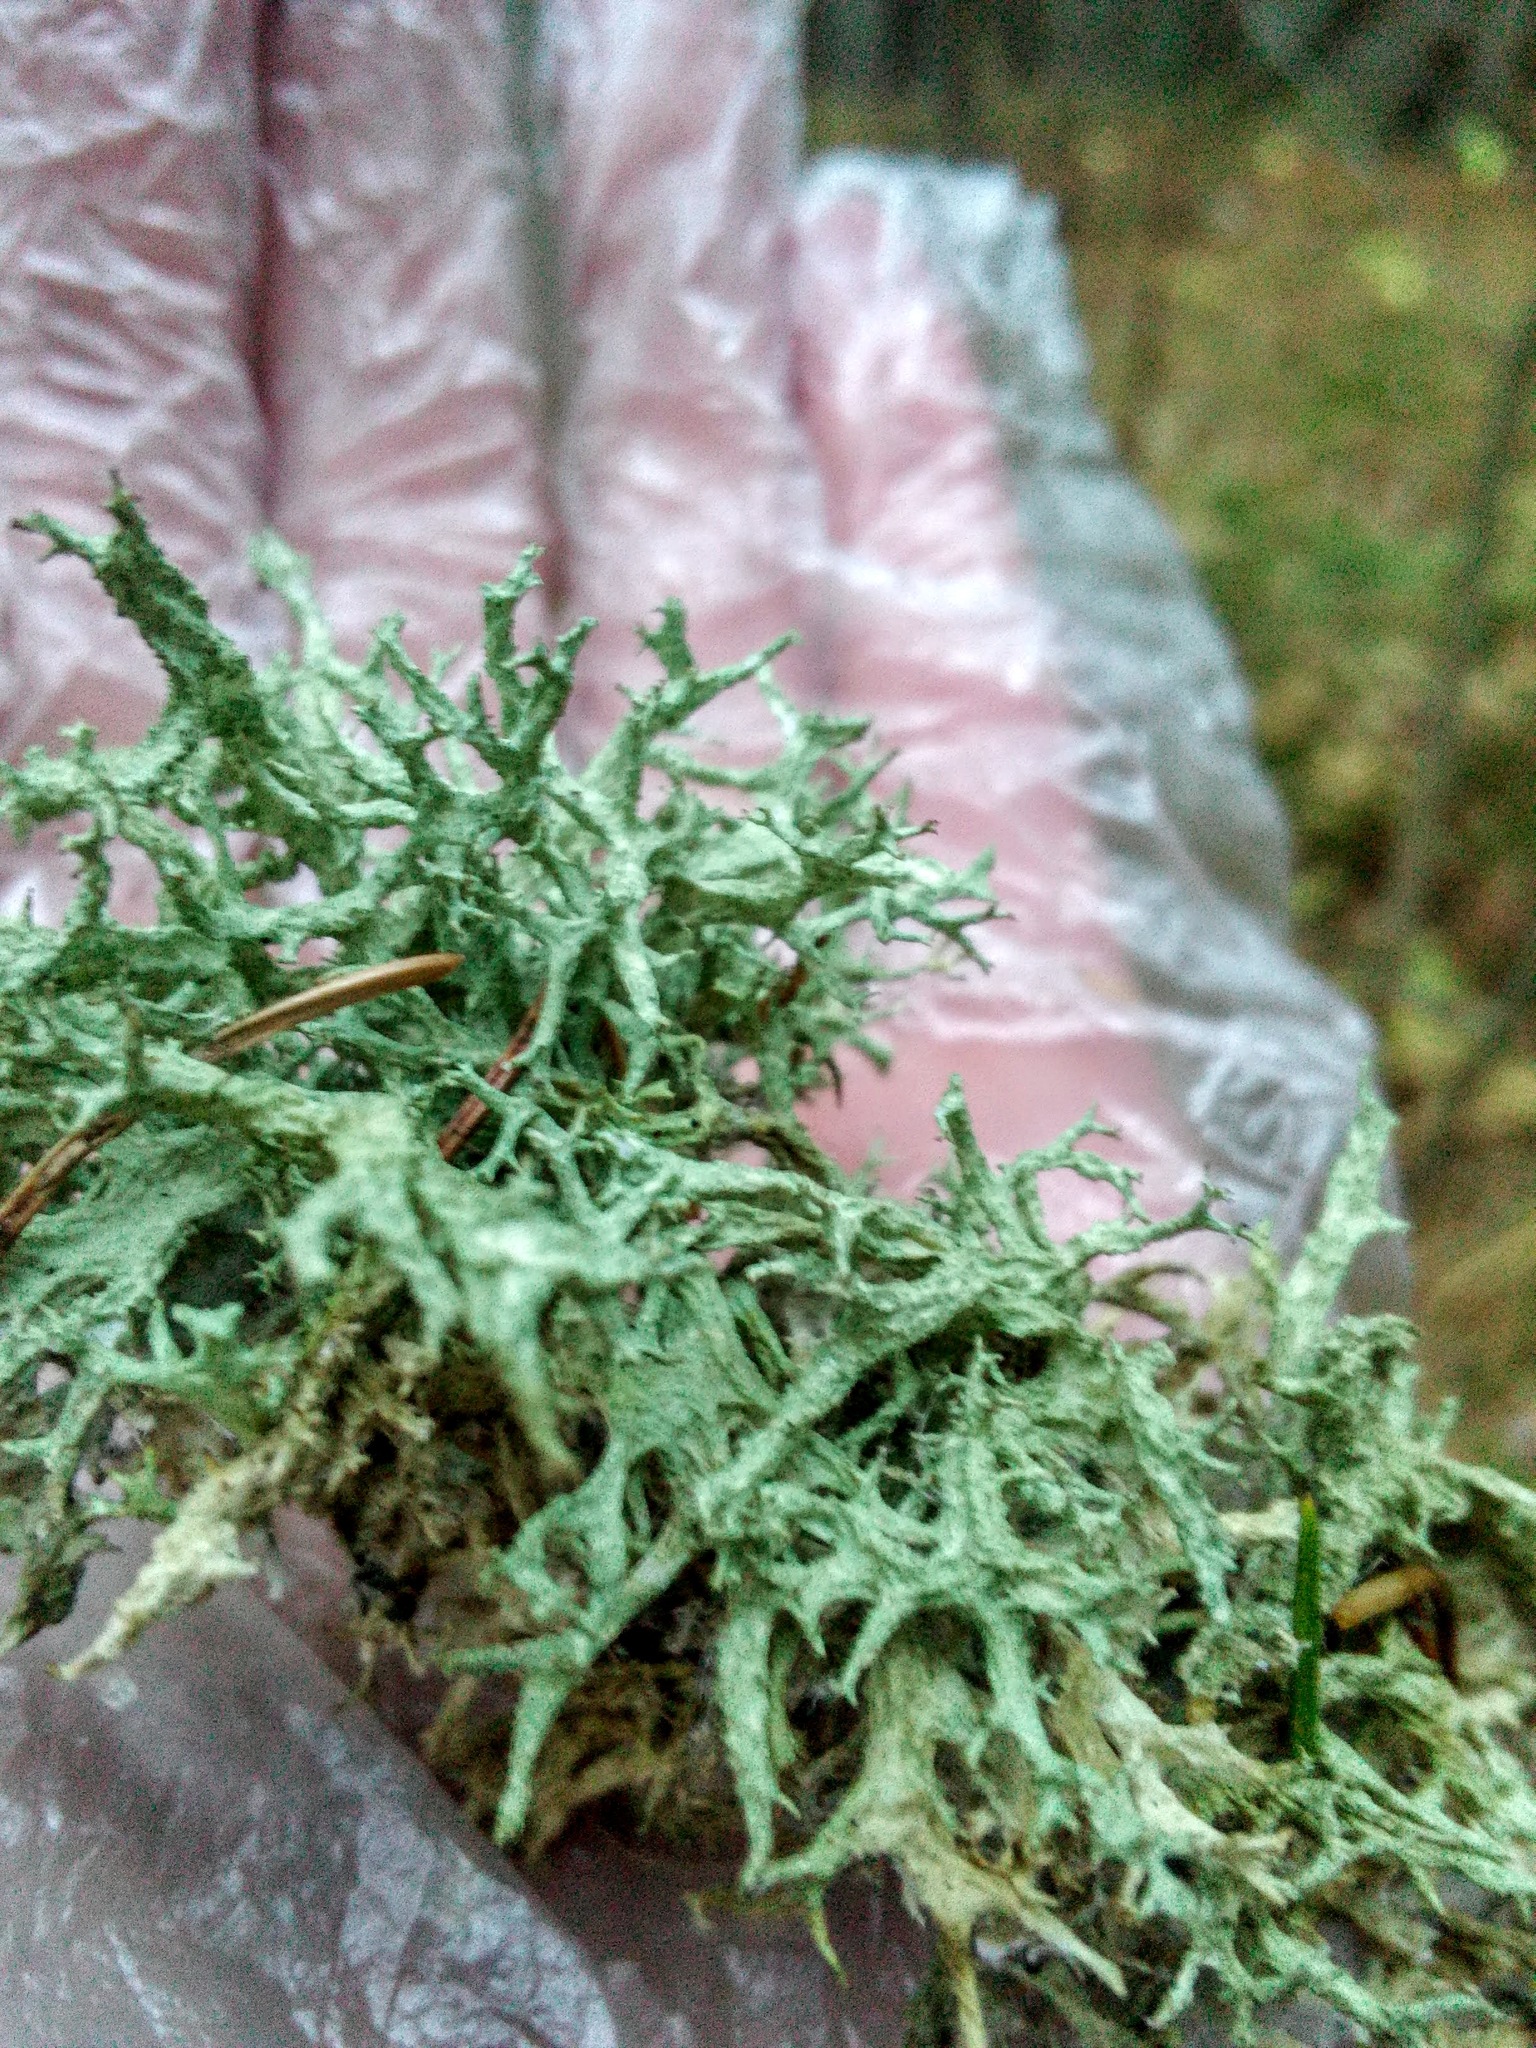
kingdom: Fungi
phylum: Ascomycota
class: Lecanoromycetes
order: Lecanorales
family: Parmeliaceae
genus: Evernia
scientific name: Evernia mesomorpha
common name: Boreal oak moss lichen
